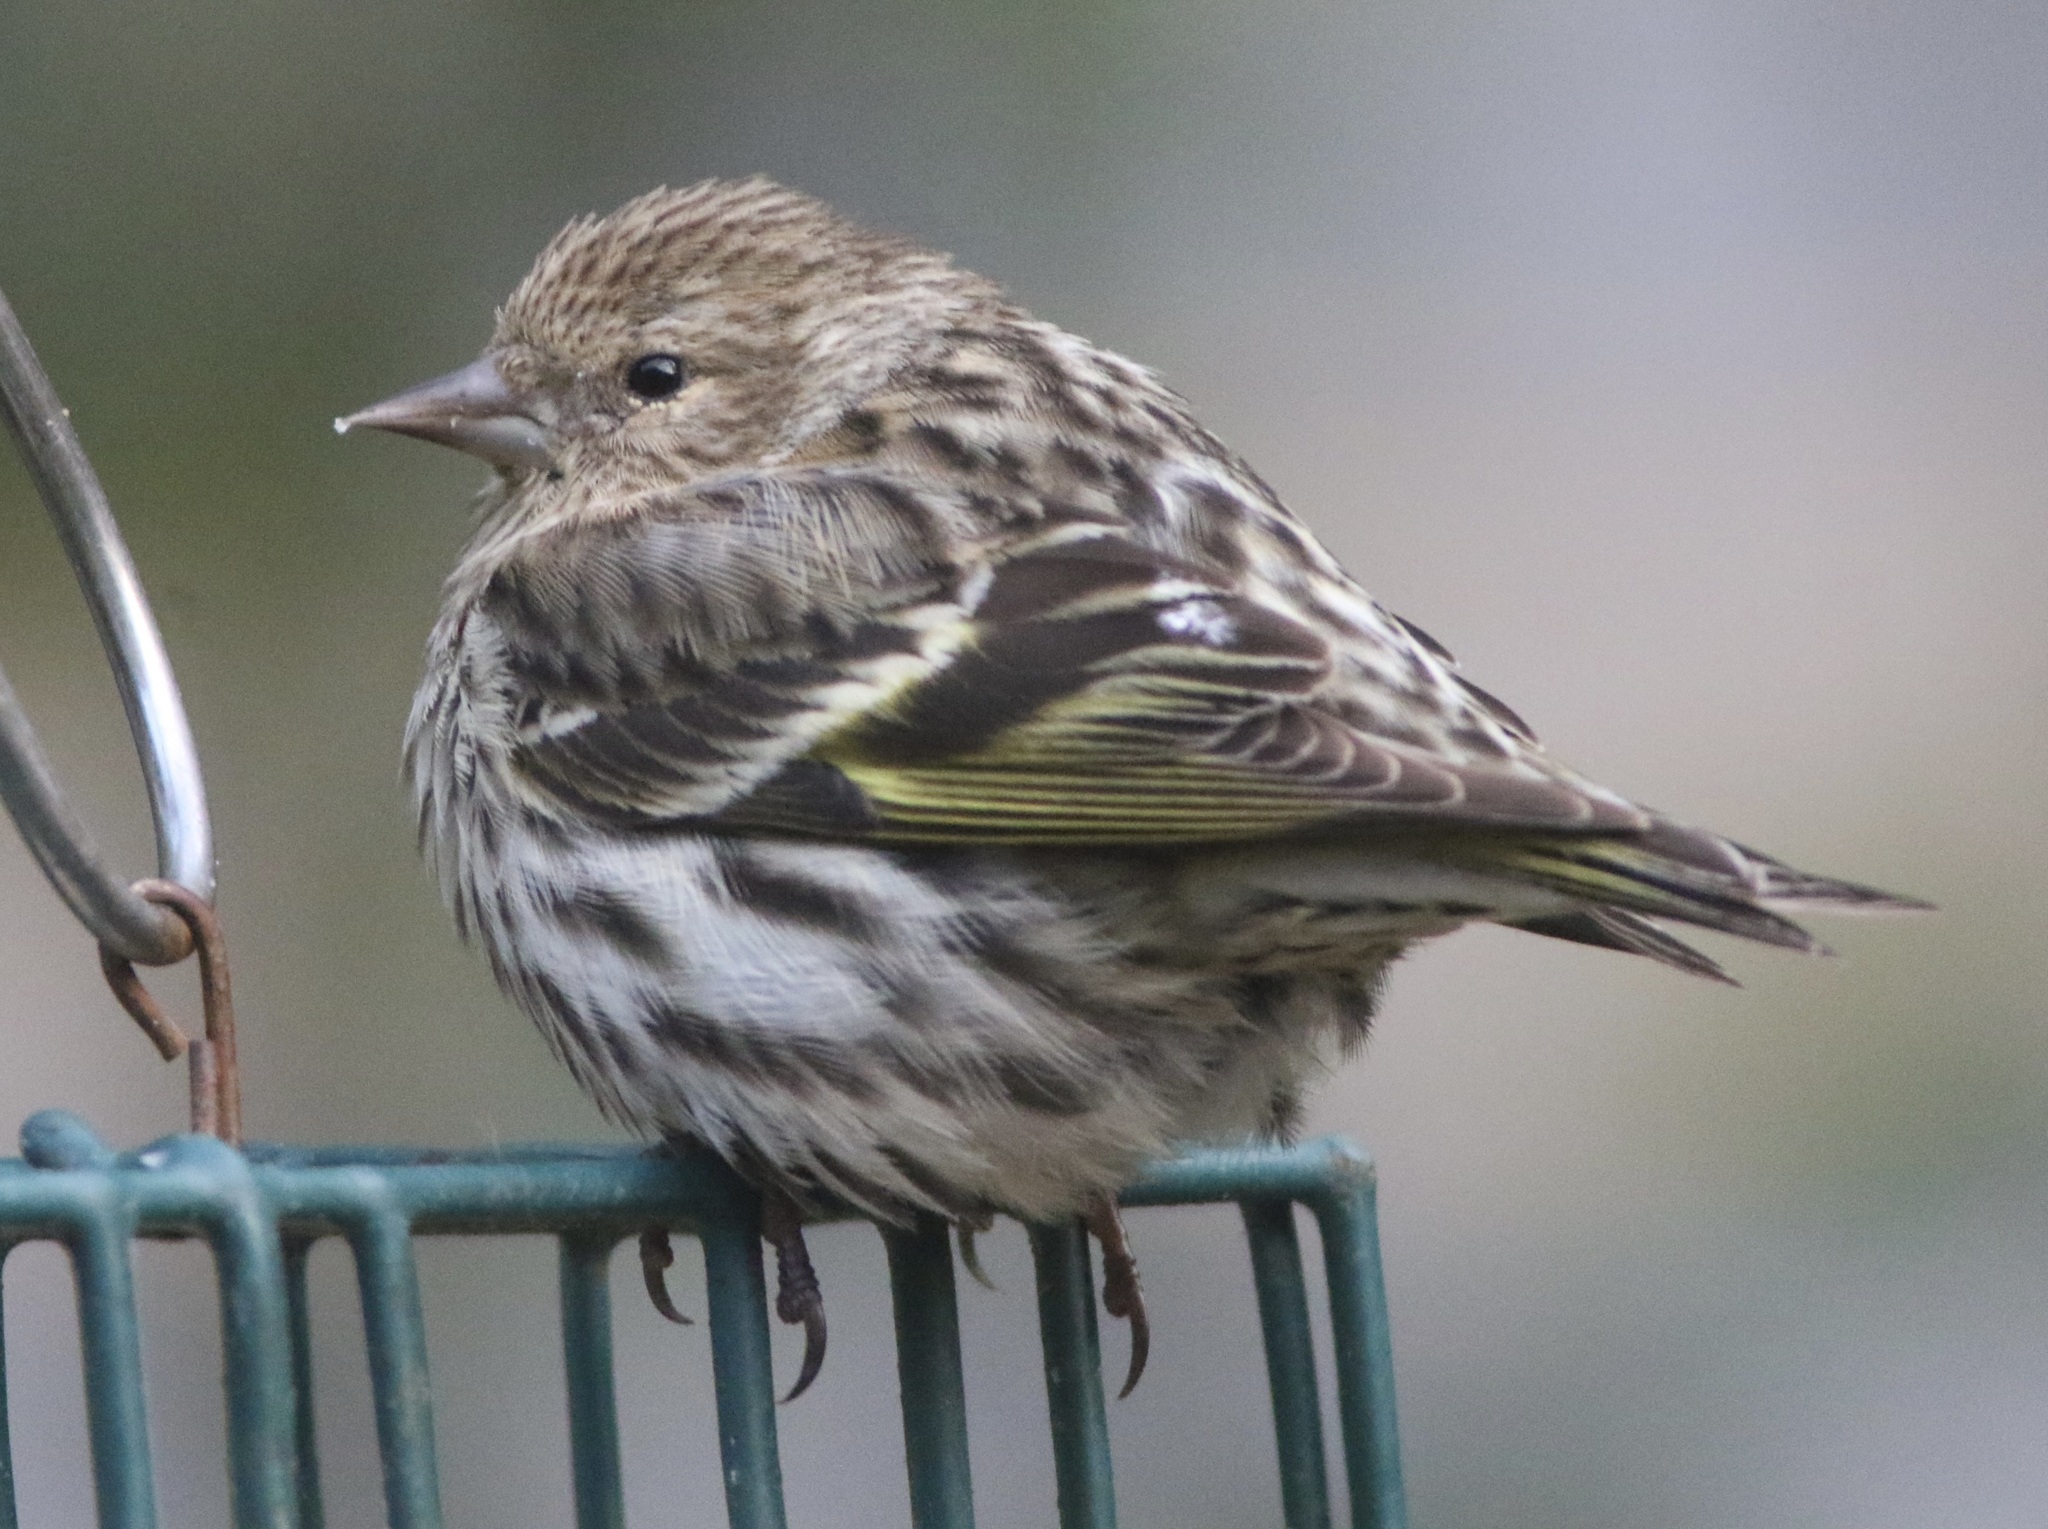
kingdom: Animalia
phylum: Chordata
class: Aves
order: Passeriformes
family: Fringillidae
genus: Spinus
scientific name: Spinus pinus
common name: Pine siskin
